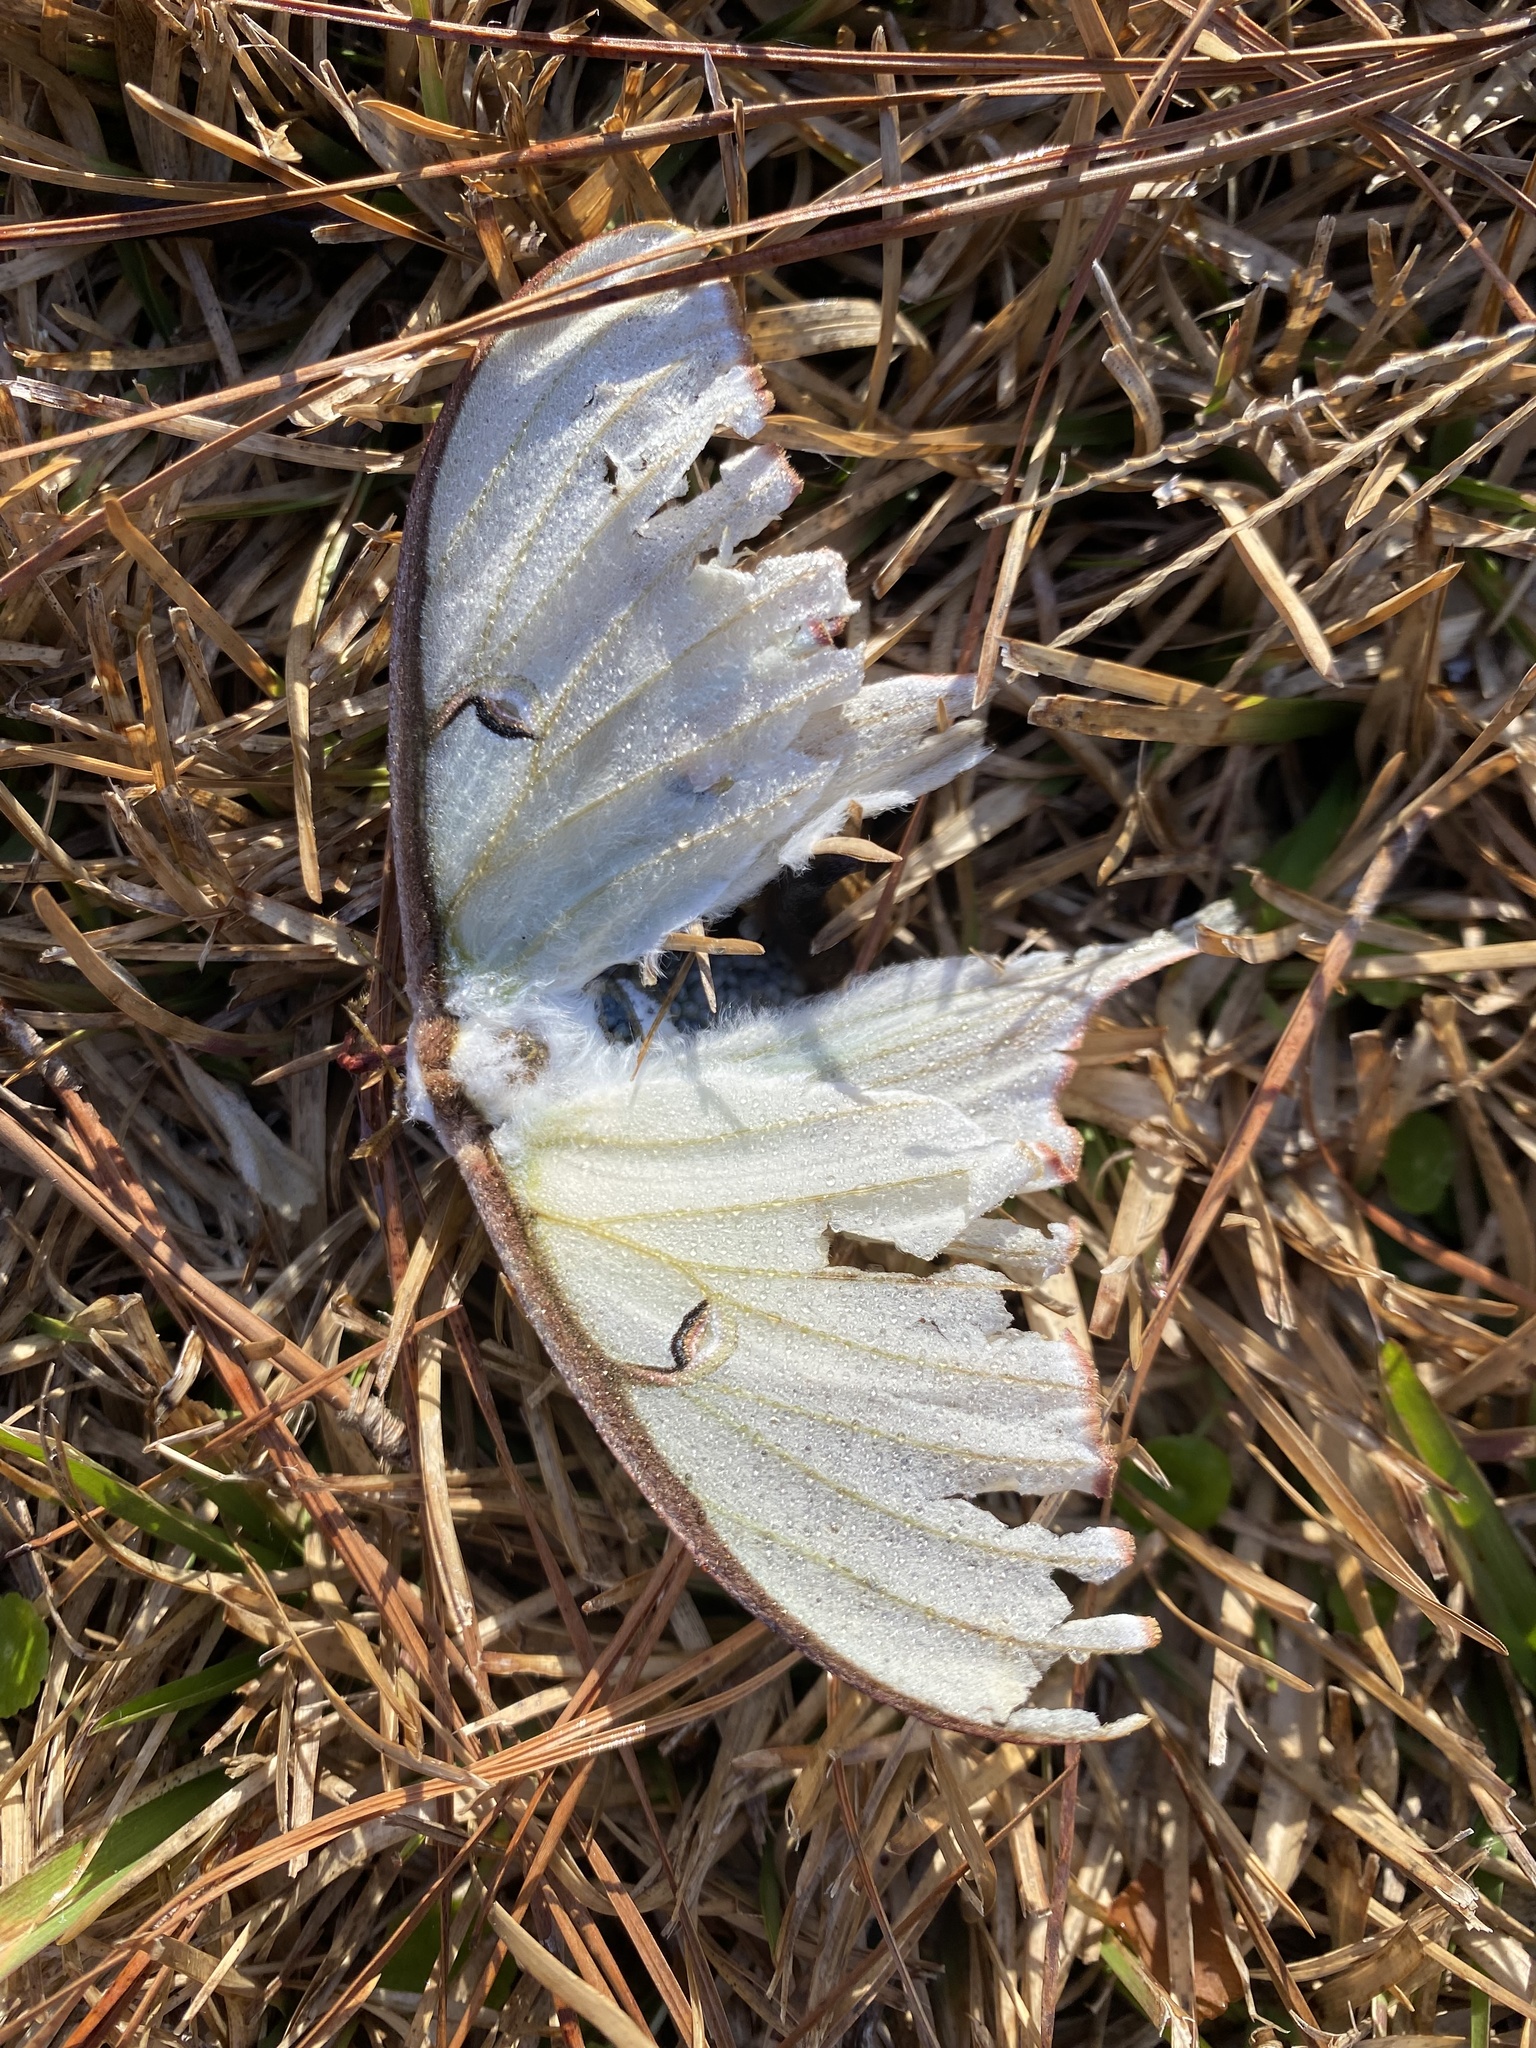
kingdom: Animalia
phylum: Arthropoda
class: Insecta
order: Lepidoptera
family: Saturniidae
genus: Actias
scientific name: Actias luna
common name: Luna moth
